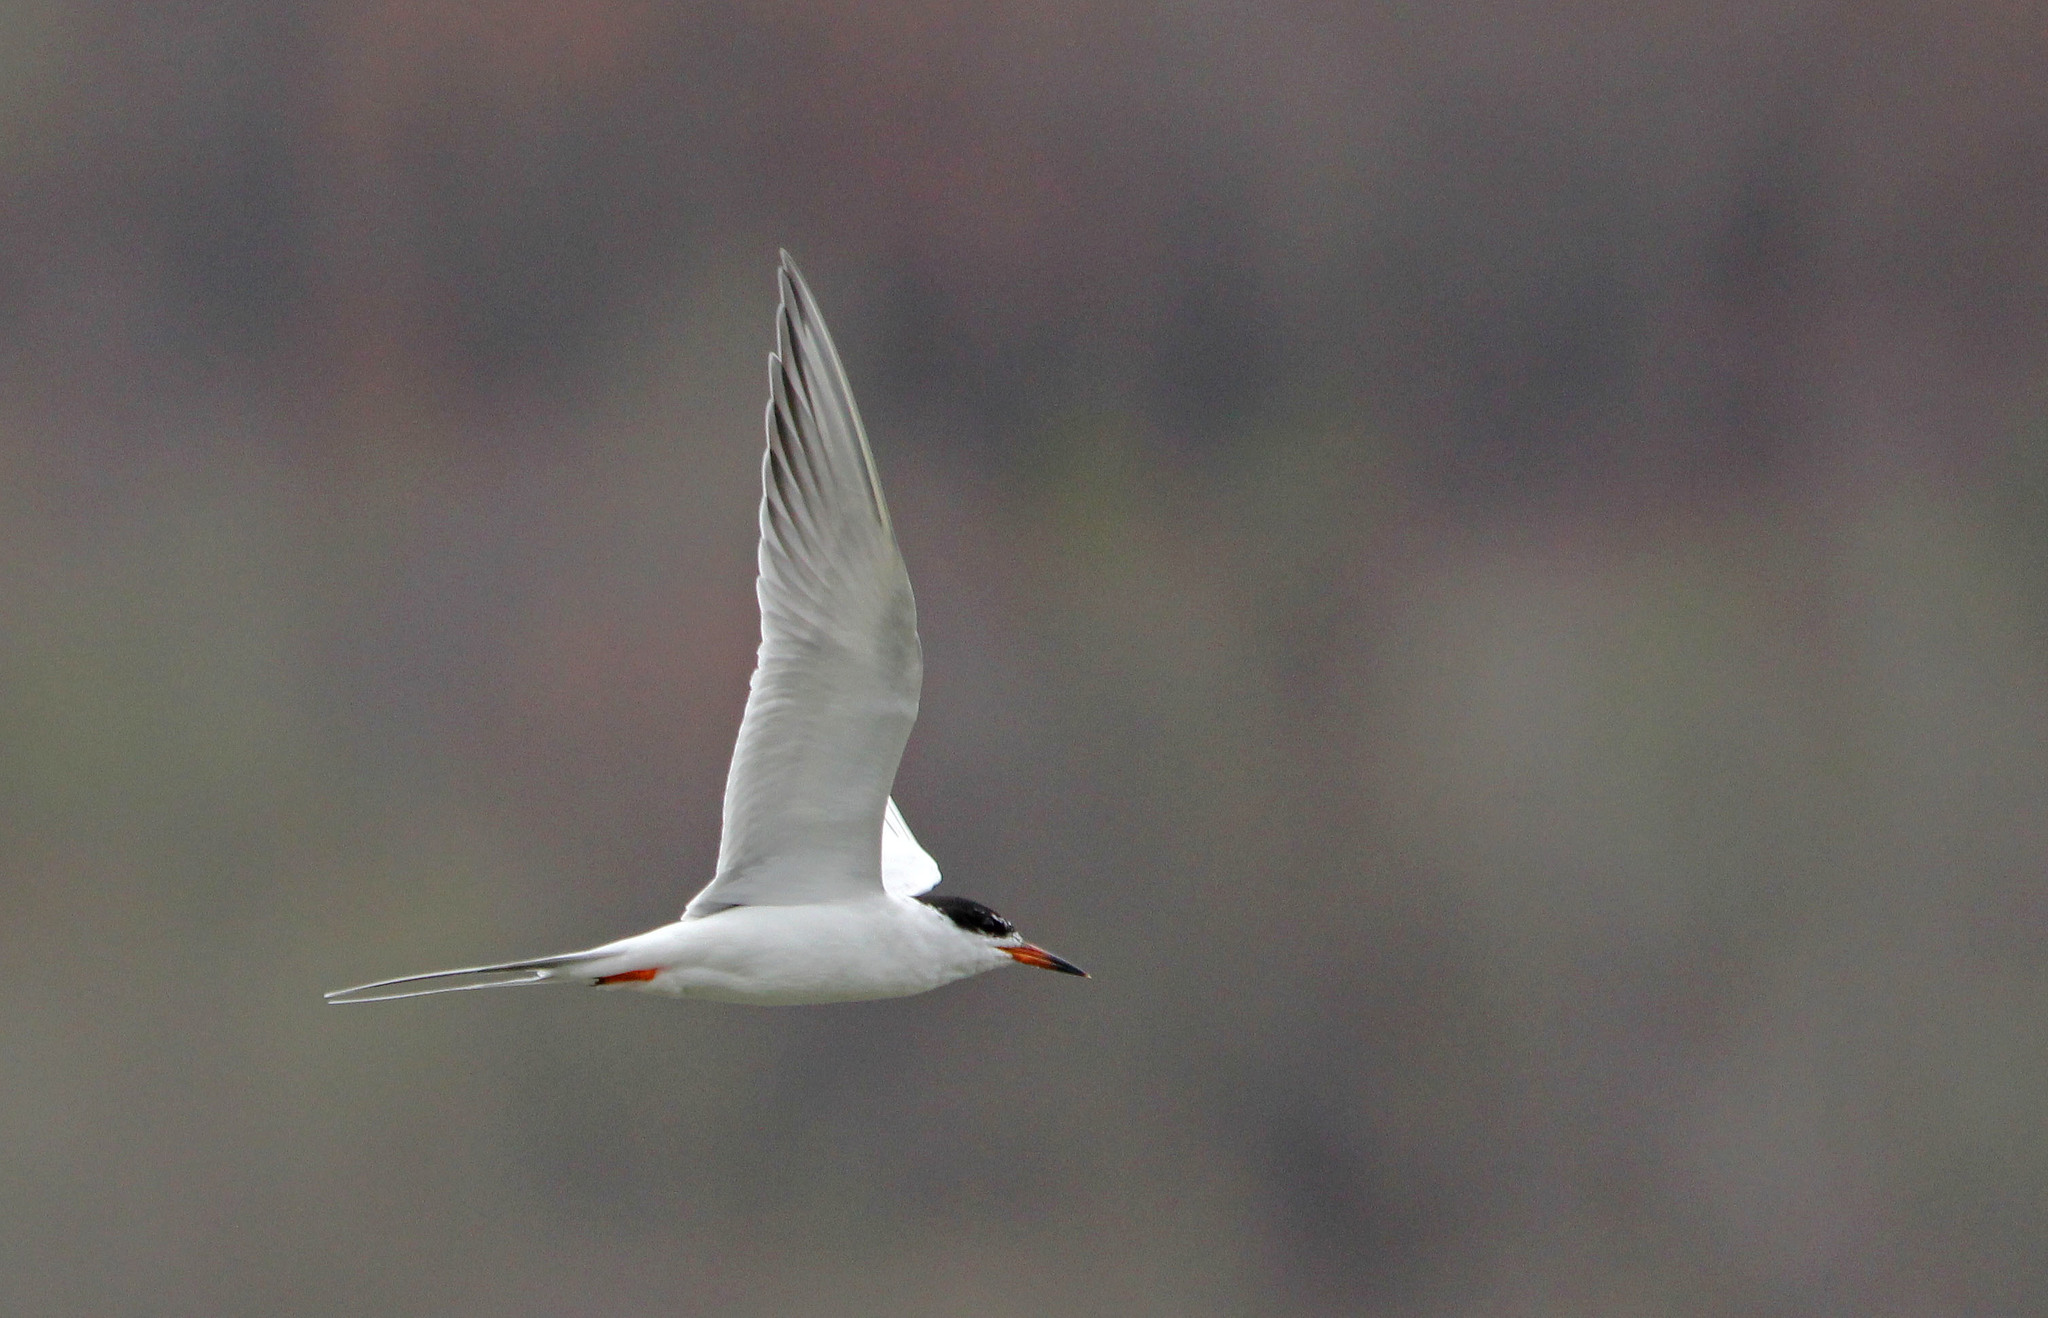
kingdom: Animalia
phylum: Chordata
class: Aves
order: Charadriiformes
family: Laridae
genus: Sterna
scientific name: Sterna forsteri
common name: Forster's tern
